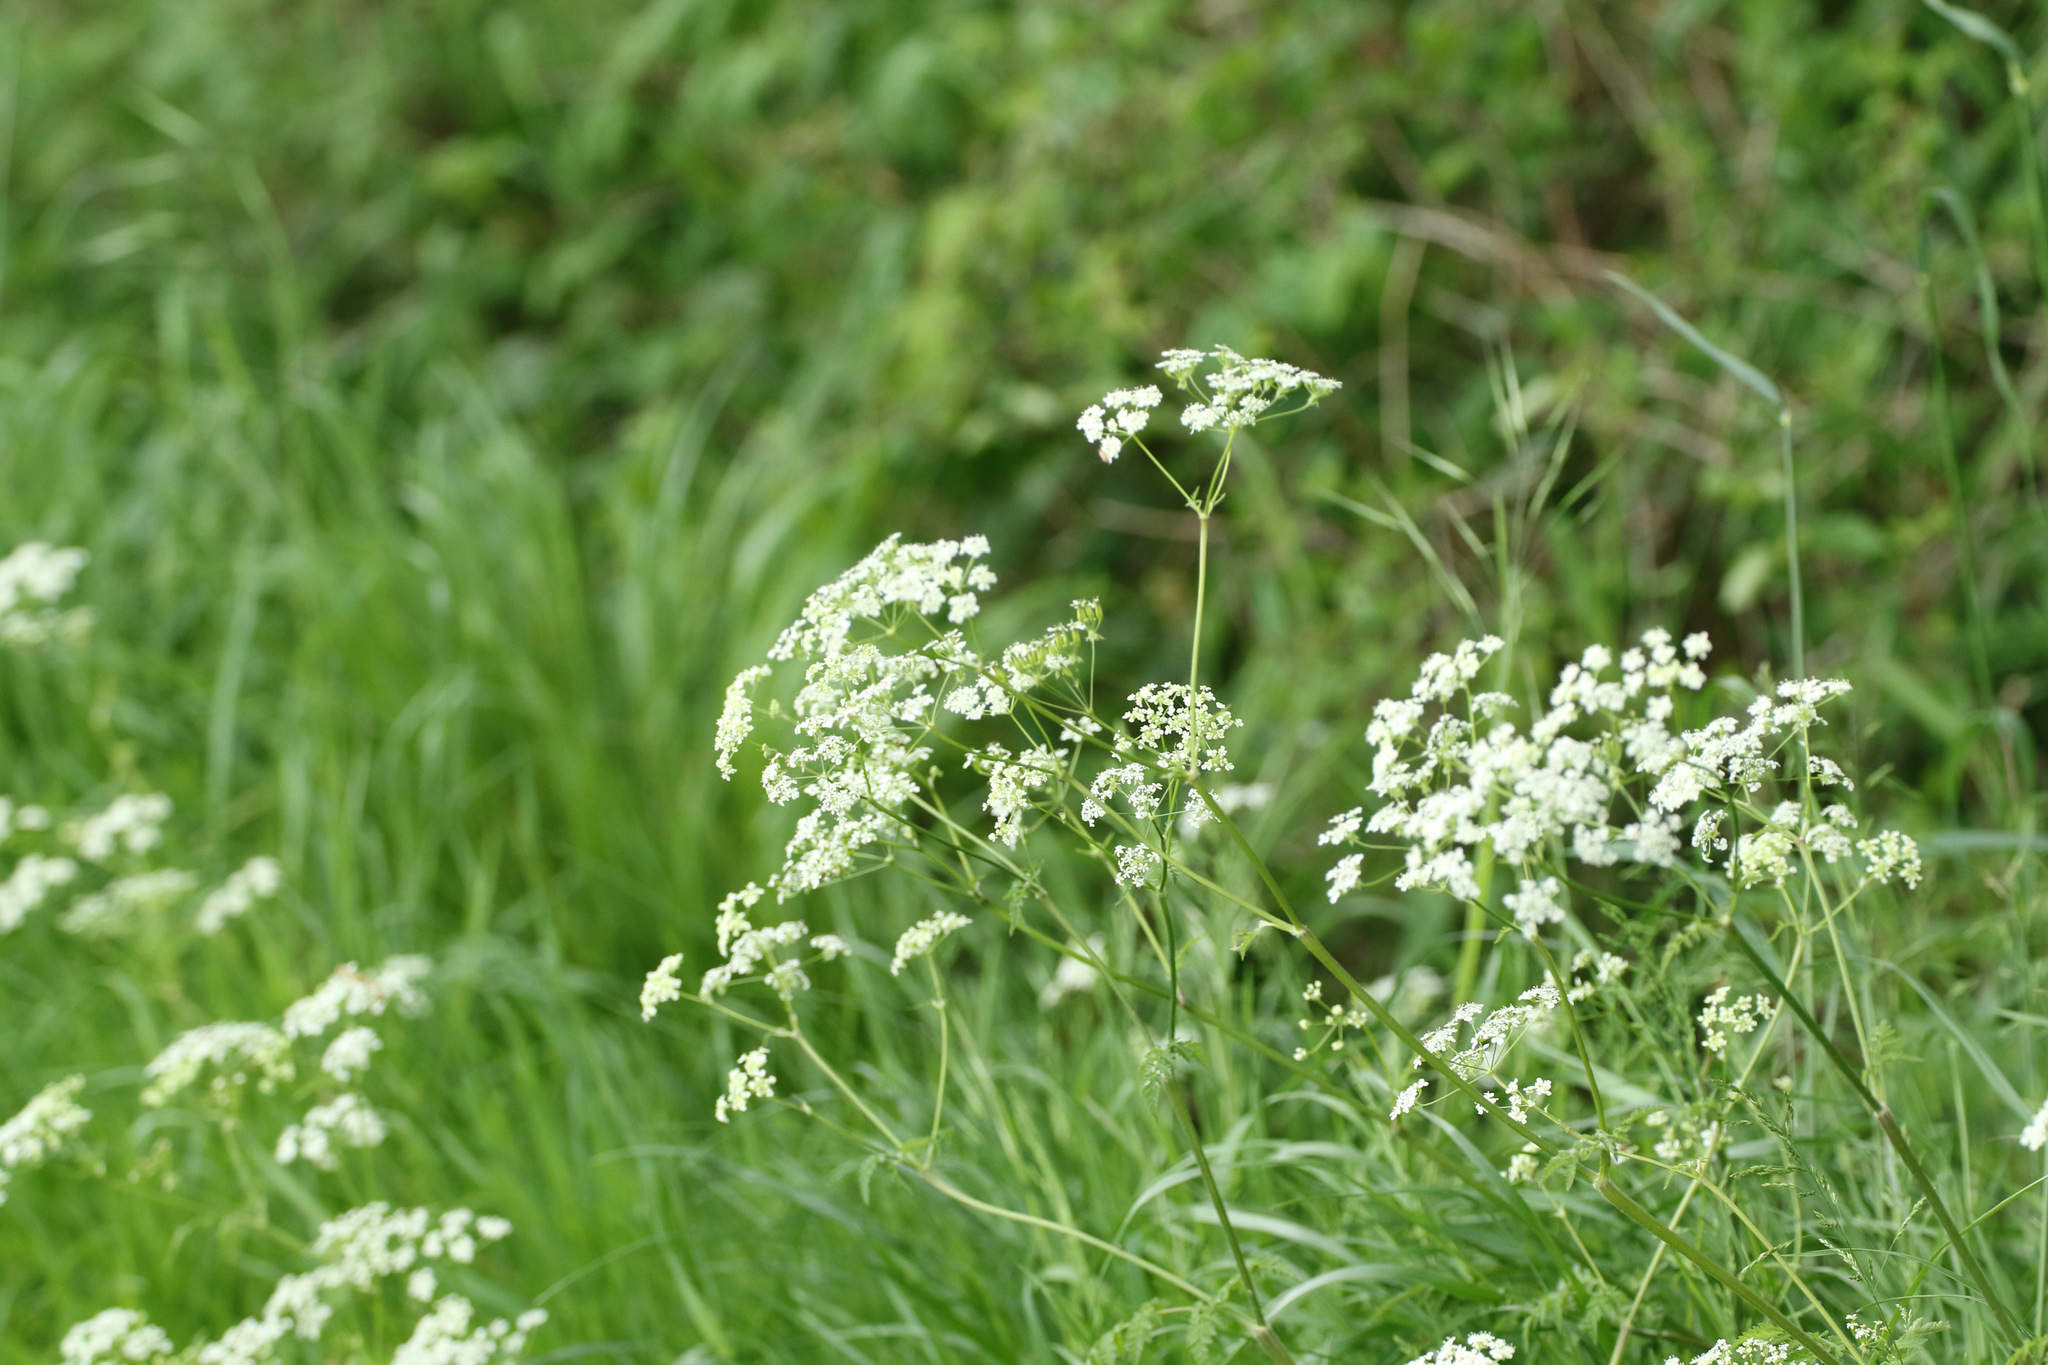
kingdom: Plantae
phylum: Tracheophyta
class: Magnoliopsida
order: Apiales
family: Apiaceae
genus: Anthriscus
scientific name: Anthriscus sylvestris
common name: Cow parsley
